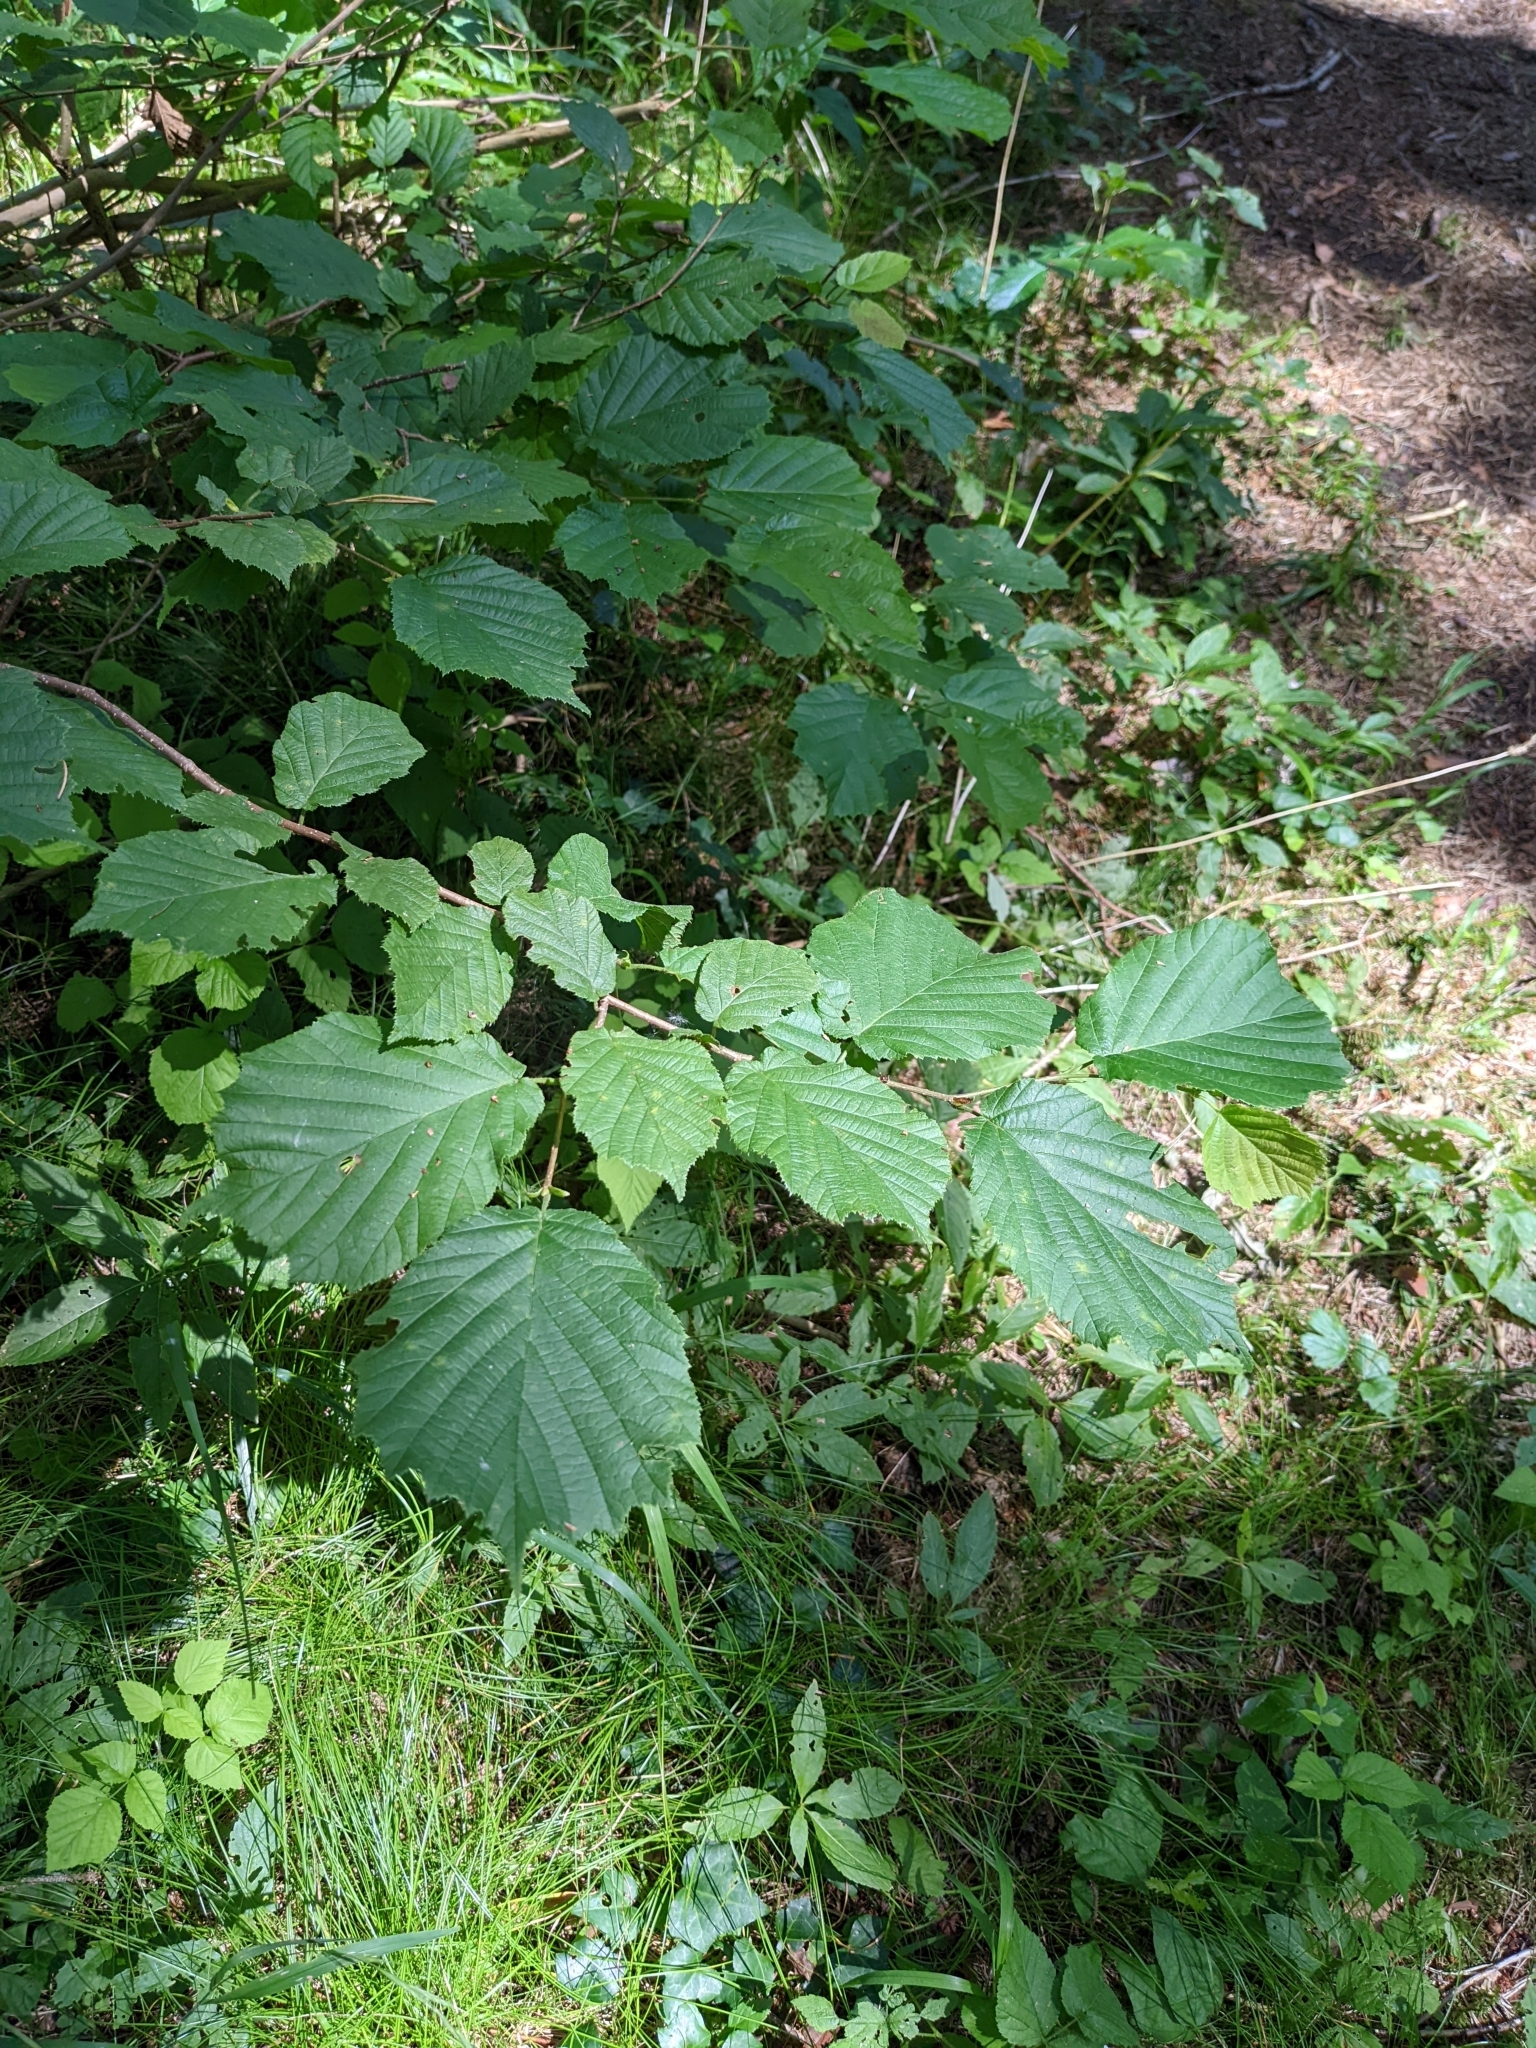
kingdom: Plantae
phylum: Tracheophyta
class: Magnoliopsida
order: Fagales
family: Betulaceae
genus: Corylus
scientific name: Corylus avellana
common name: European hazel
